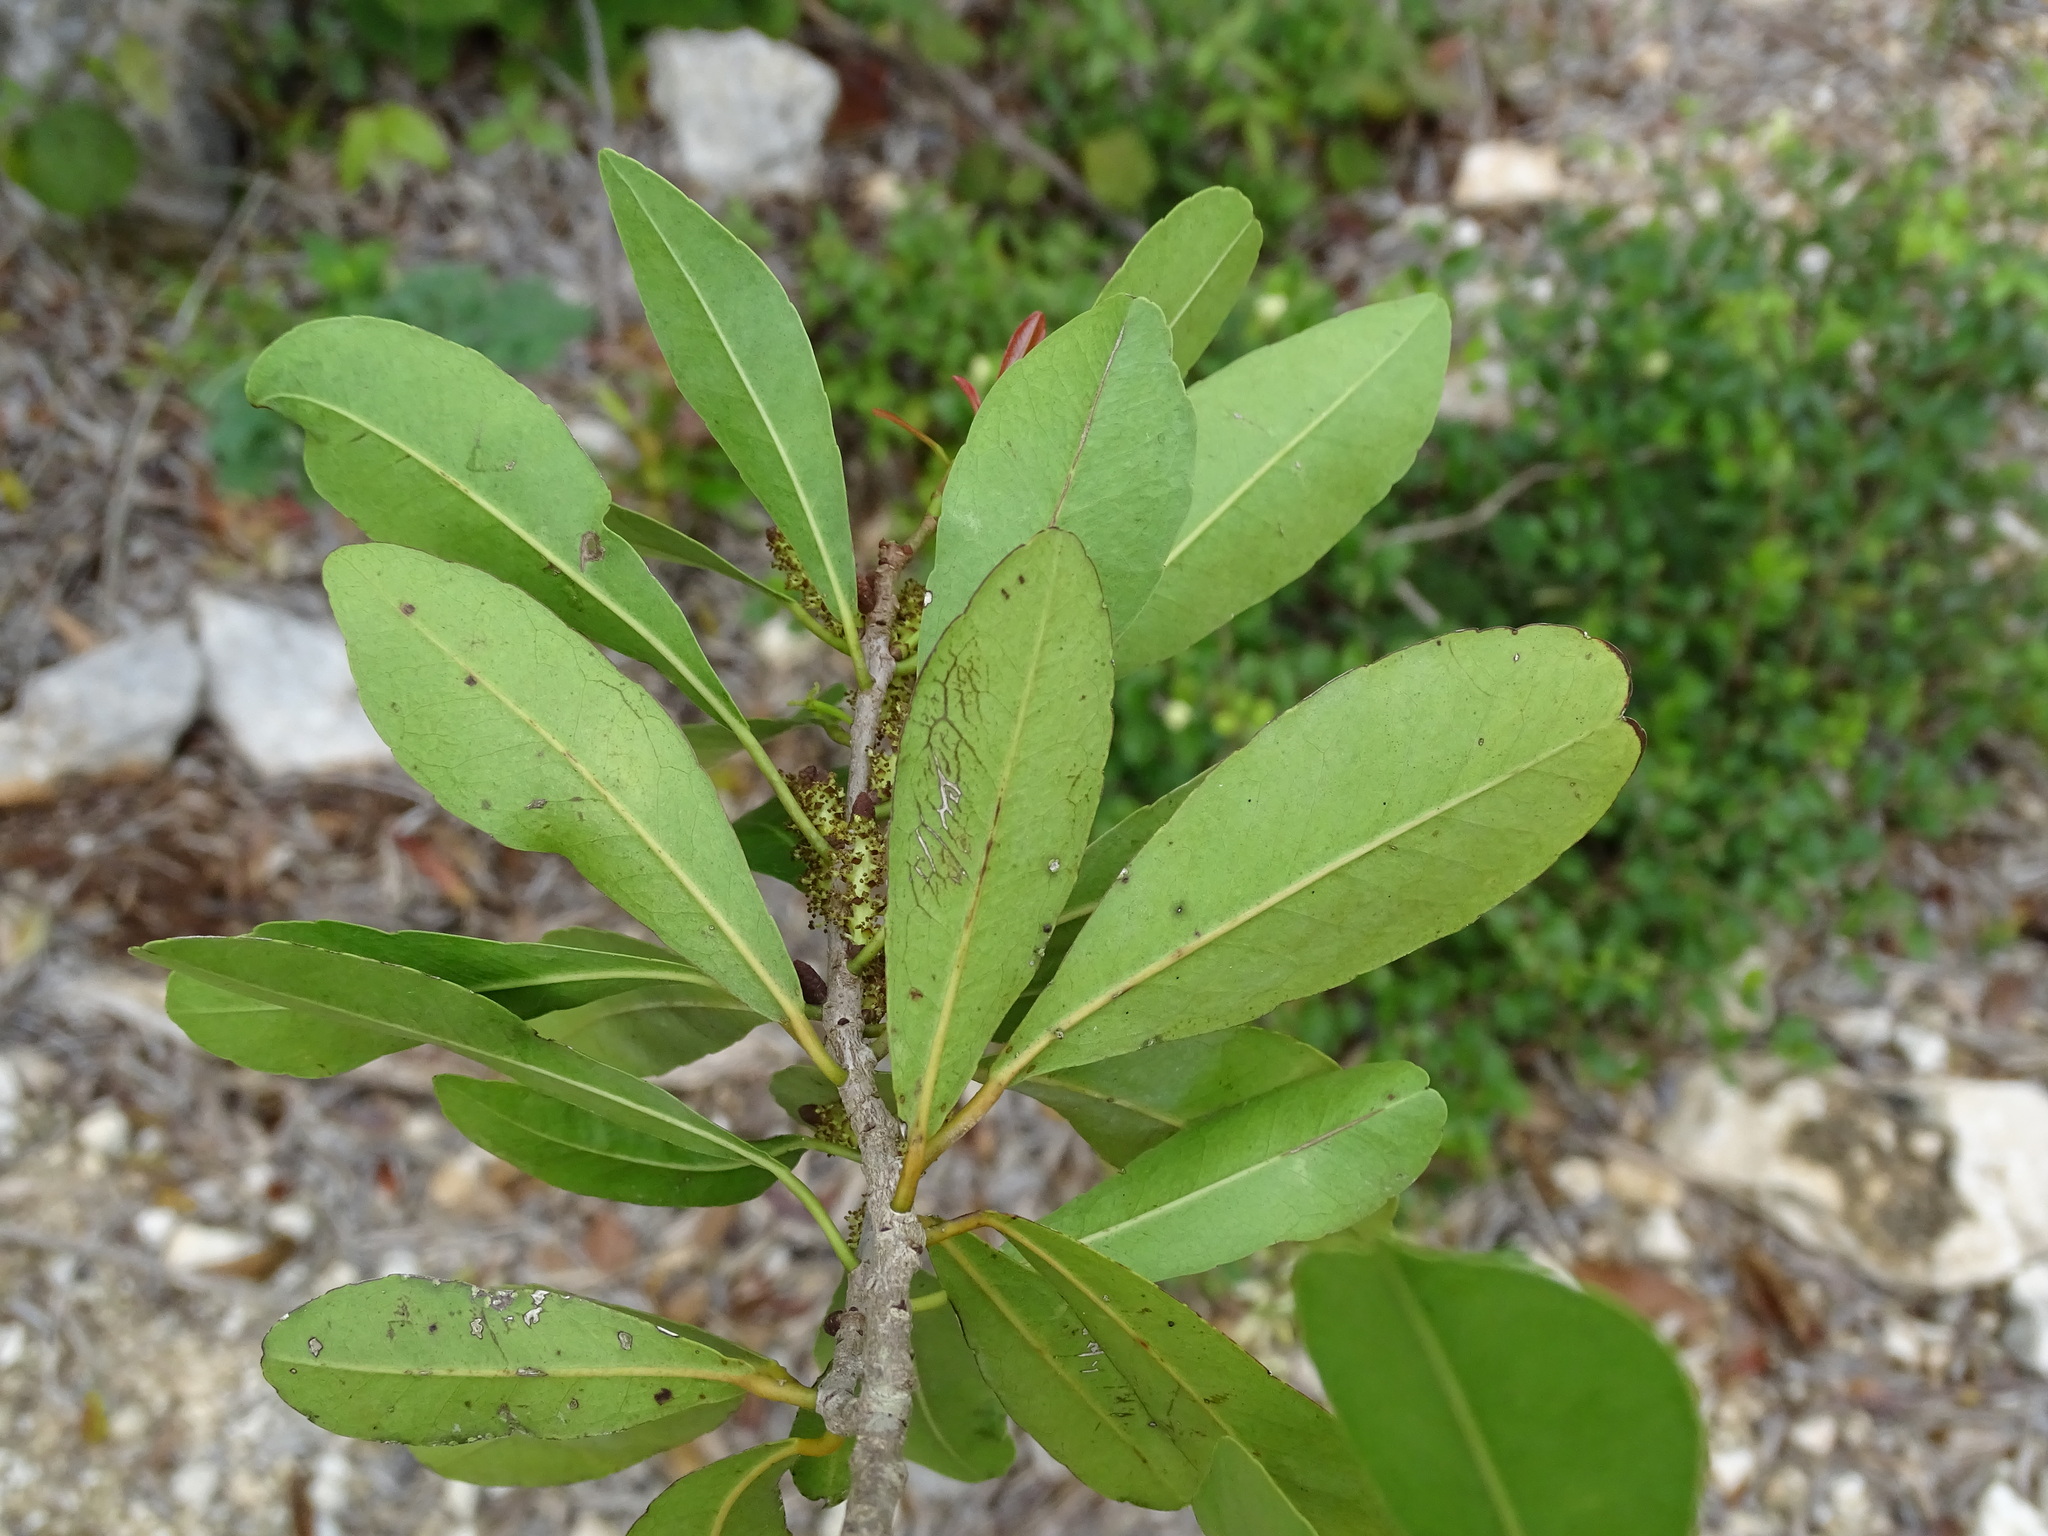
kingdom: Plantae
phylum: Tracheophyta
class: Magnoliopsida
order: Malpighiales
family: Euphorbiaceae
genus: Gymnanthes
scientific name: Gymnanthes lucida
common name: Oysterwood
